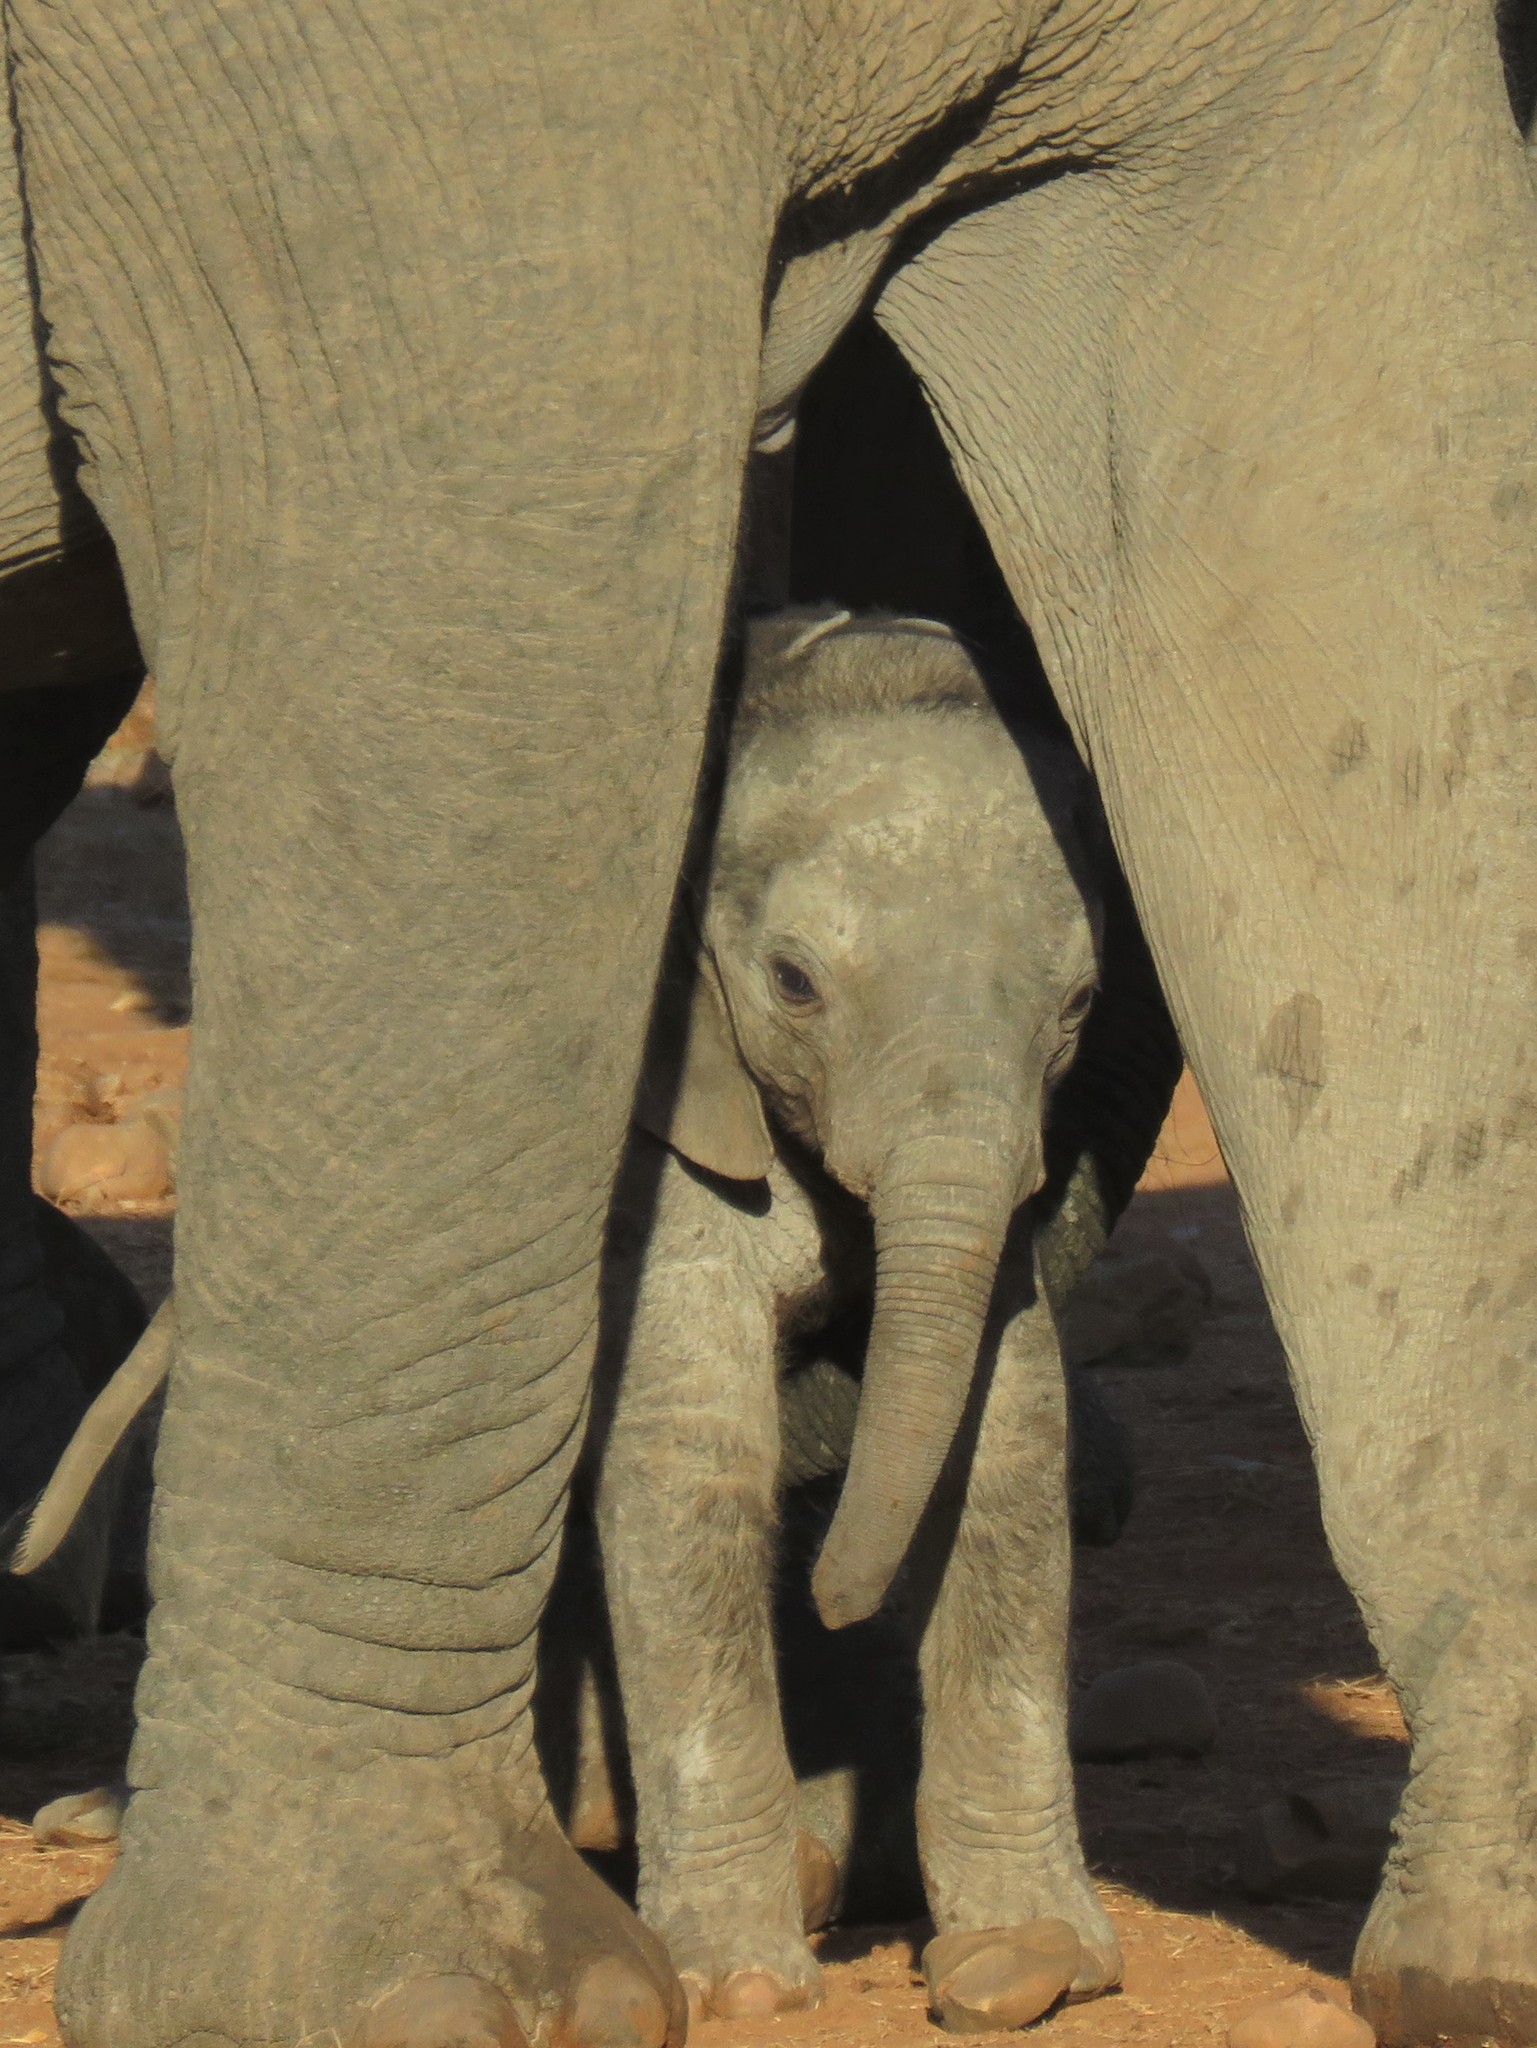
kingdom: Animalia
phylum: Chordata
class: Mammalia
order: Proboscidea
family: Elephantidae
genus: Loxodonta
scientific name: Loxodonta africana
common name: African elephant
